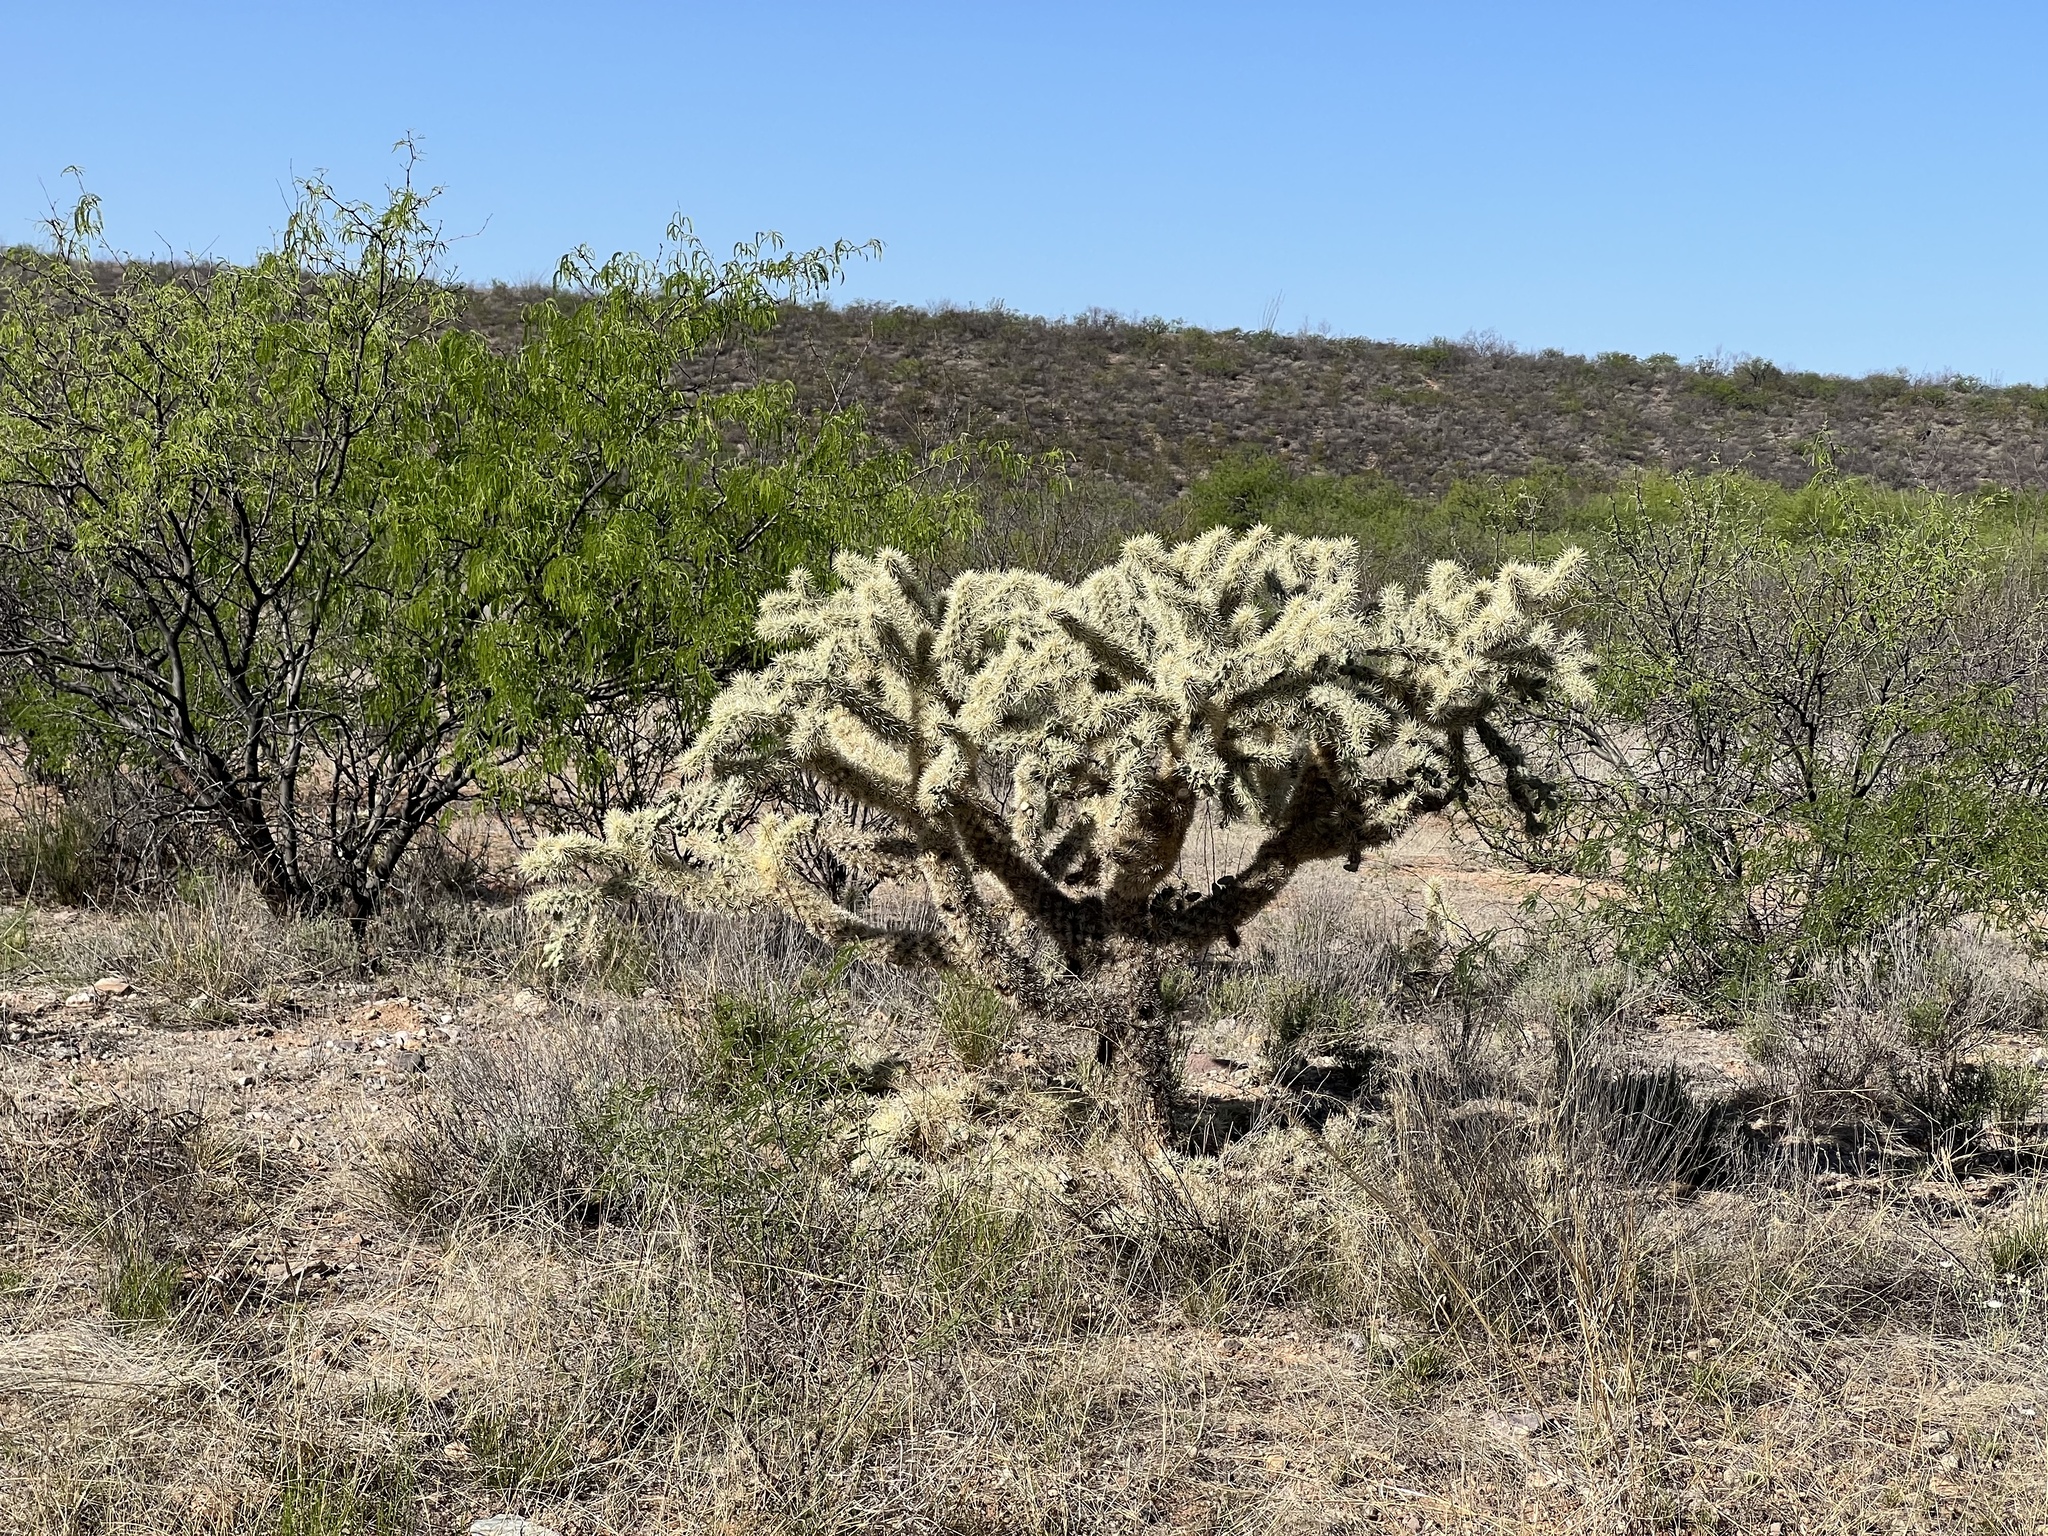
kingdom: Plantae
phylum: Tracheophyta
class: Magnoliopsida
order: Caryophyllales
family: Cactaceae
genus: Cylindropuntia
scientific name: Cylindropuntia fulgida
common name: Jumping cholla
